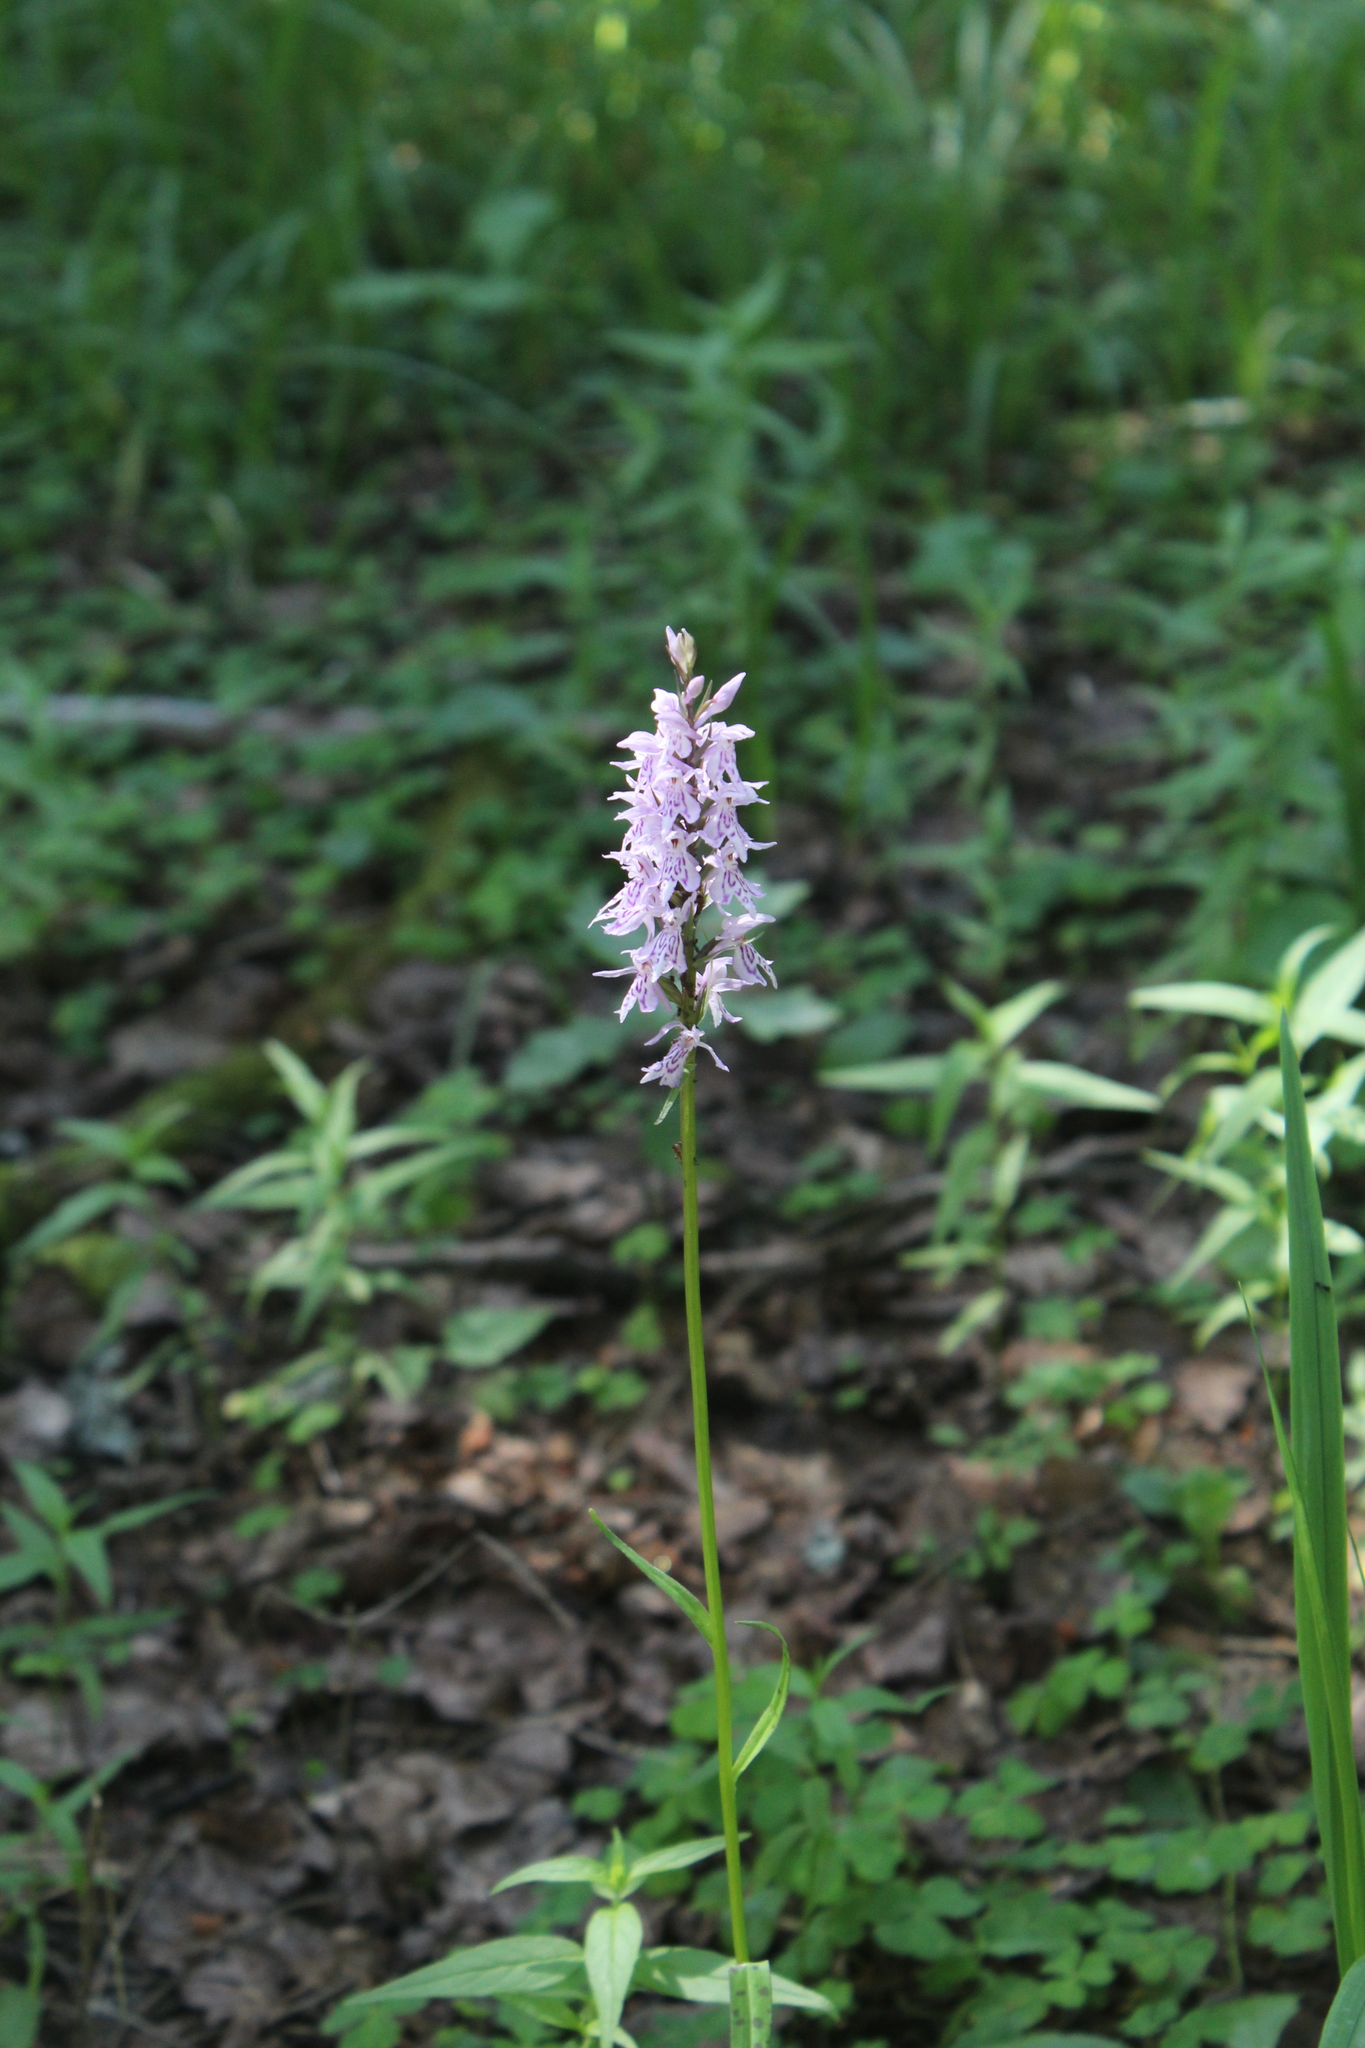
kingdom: Plantae
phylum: Tracheophyta
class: Liliopsida
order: Asparagales
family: Orchidaceae
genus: Dactylorhiza
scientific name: Dactylorhiza maculata
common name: Heath spotted-orchid
